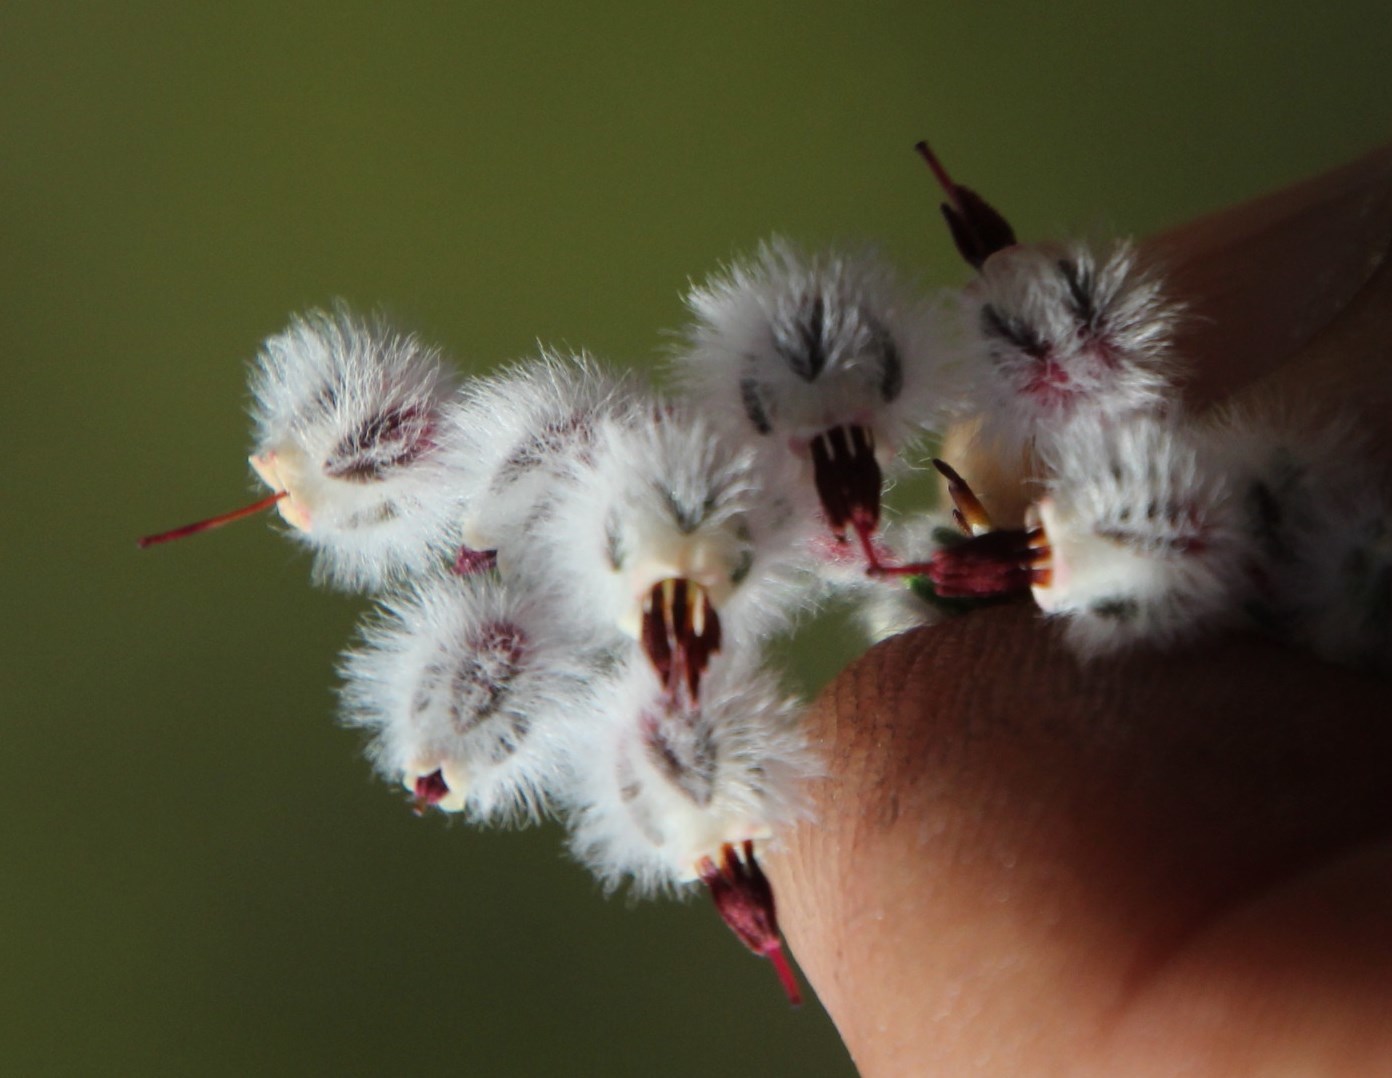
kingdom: Plantae
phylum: Tracheophyta
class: Magnoliopsida
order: Ericales
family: Ericaceae
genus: Erica
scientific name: Erica bruniades
